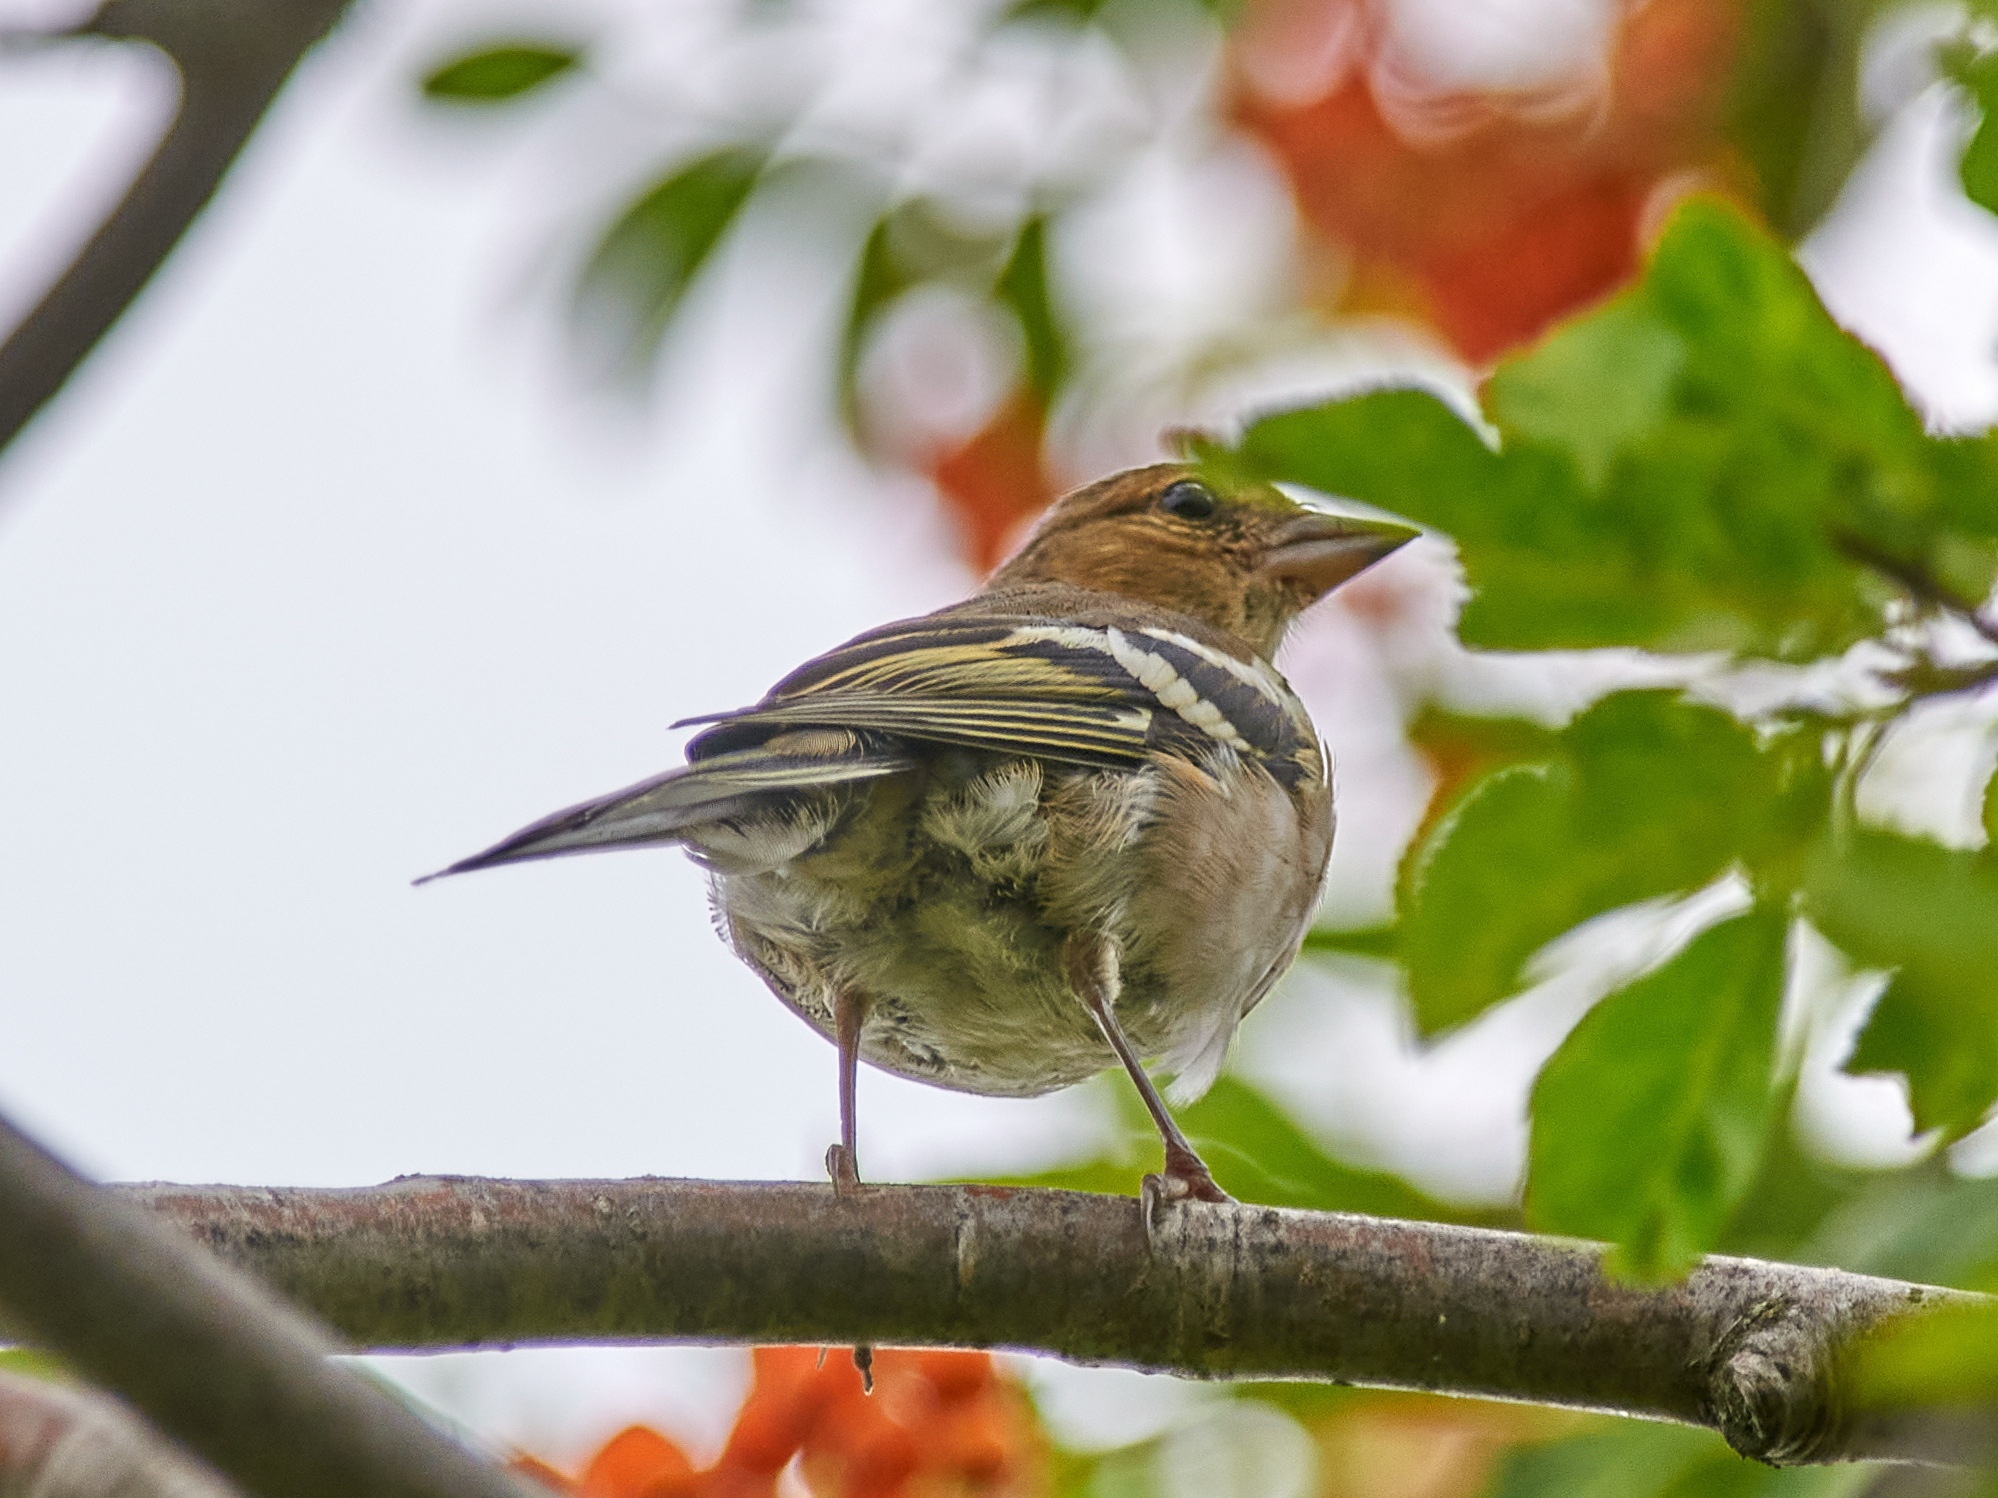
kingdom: Animalia
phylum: Chordata
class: Aves
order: Passeriformes
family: Fringillidae
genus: Fringilla
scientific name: Fringilla coelebs
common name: Common chaffinch
